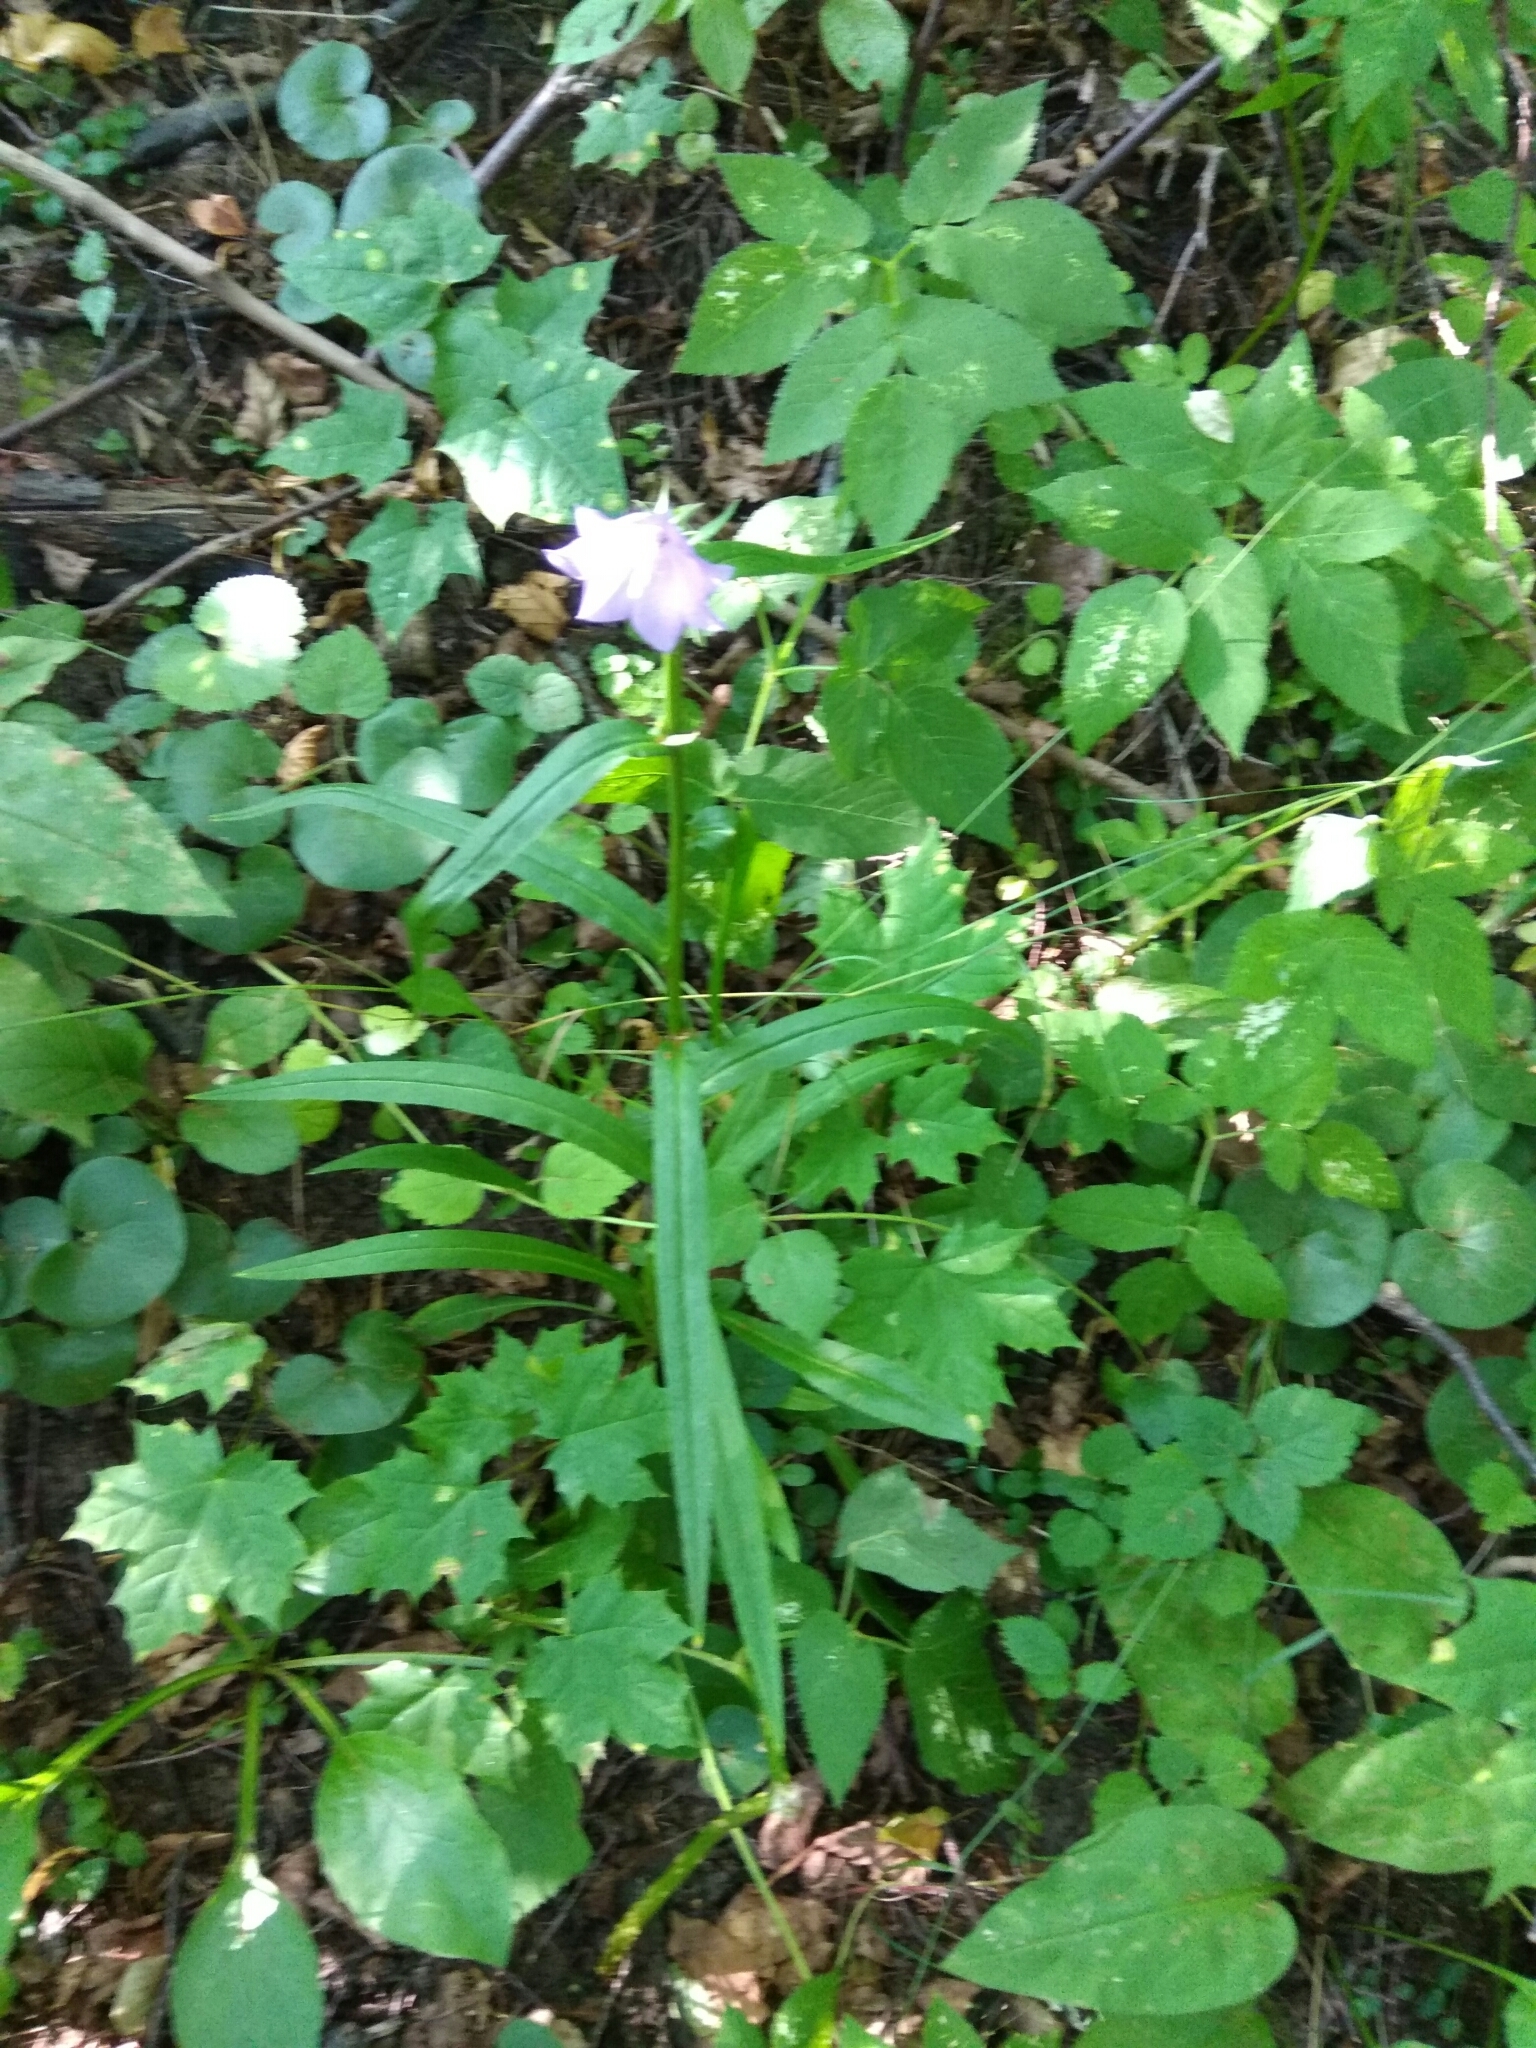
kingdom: Plantae
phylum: Tracheophyta
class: Magnoliopsida
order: Asterales
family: Campanulaceae
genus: Campanula
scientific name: Campanula persicifolia
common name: Peach-leaved bellflower
